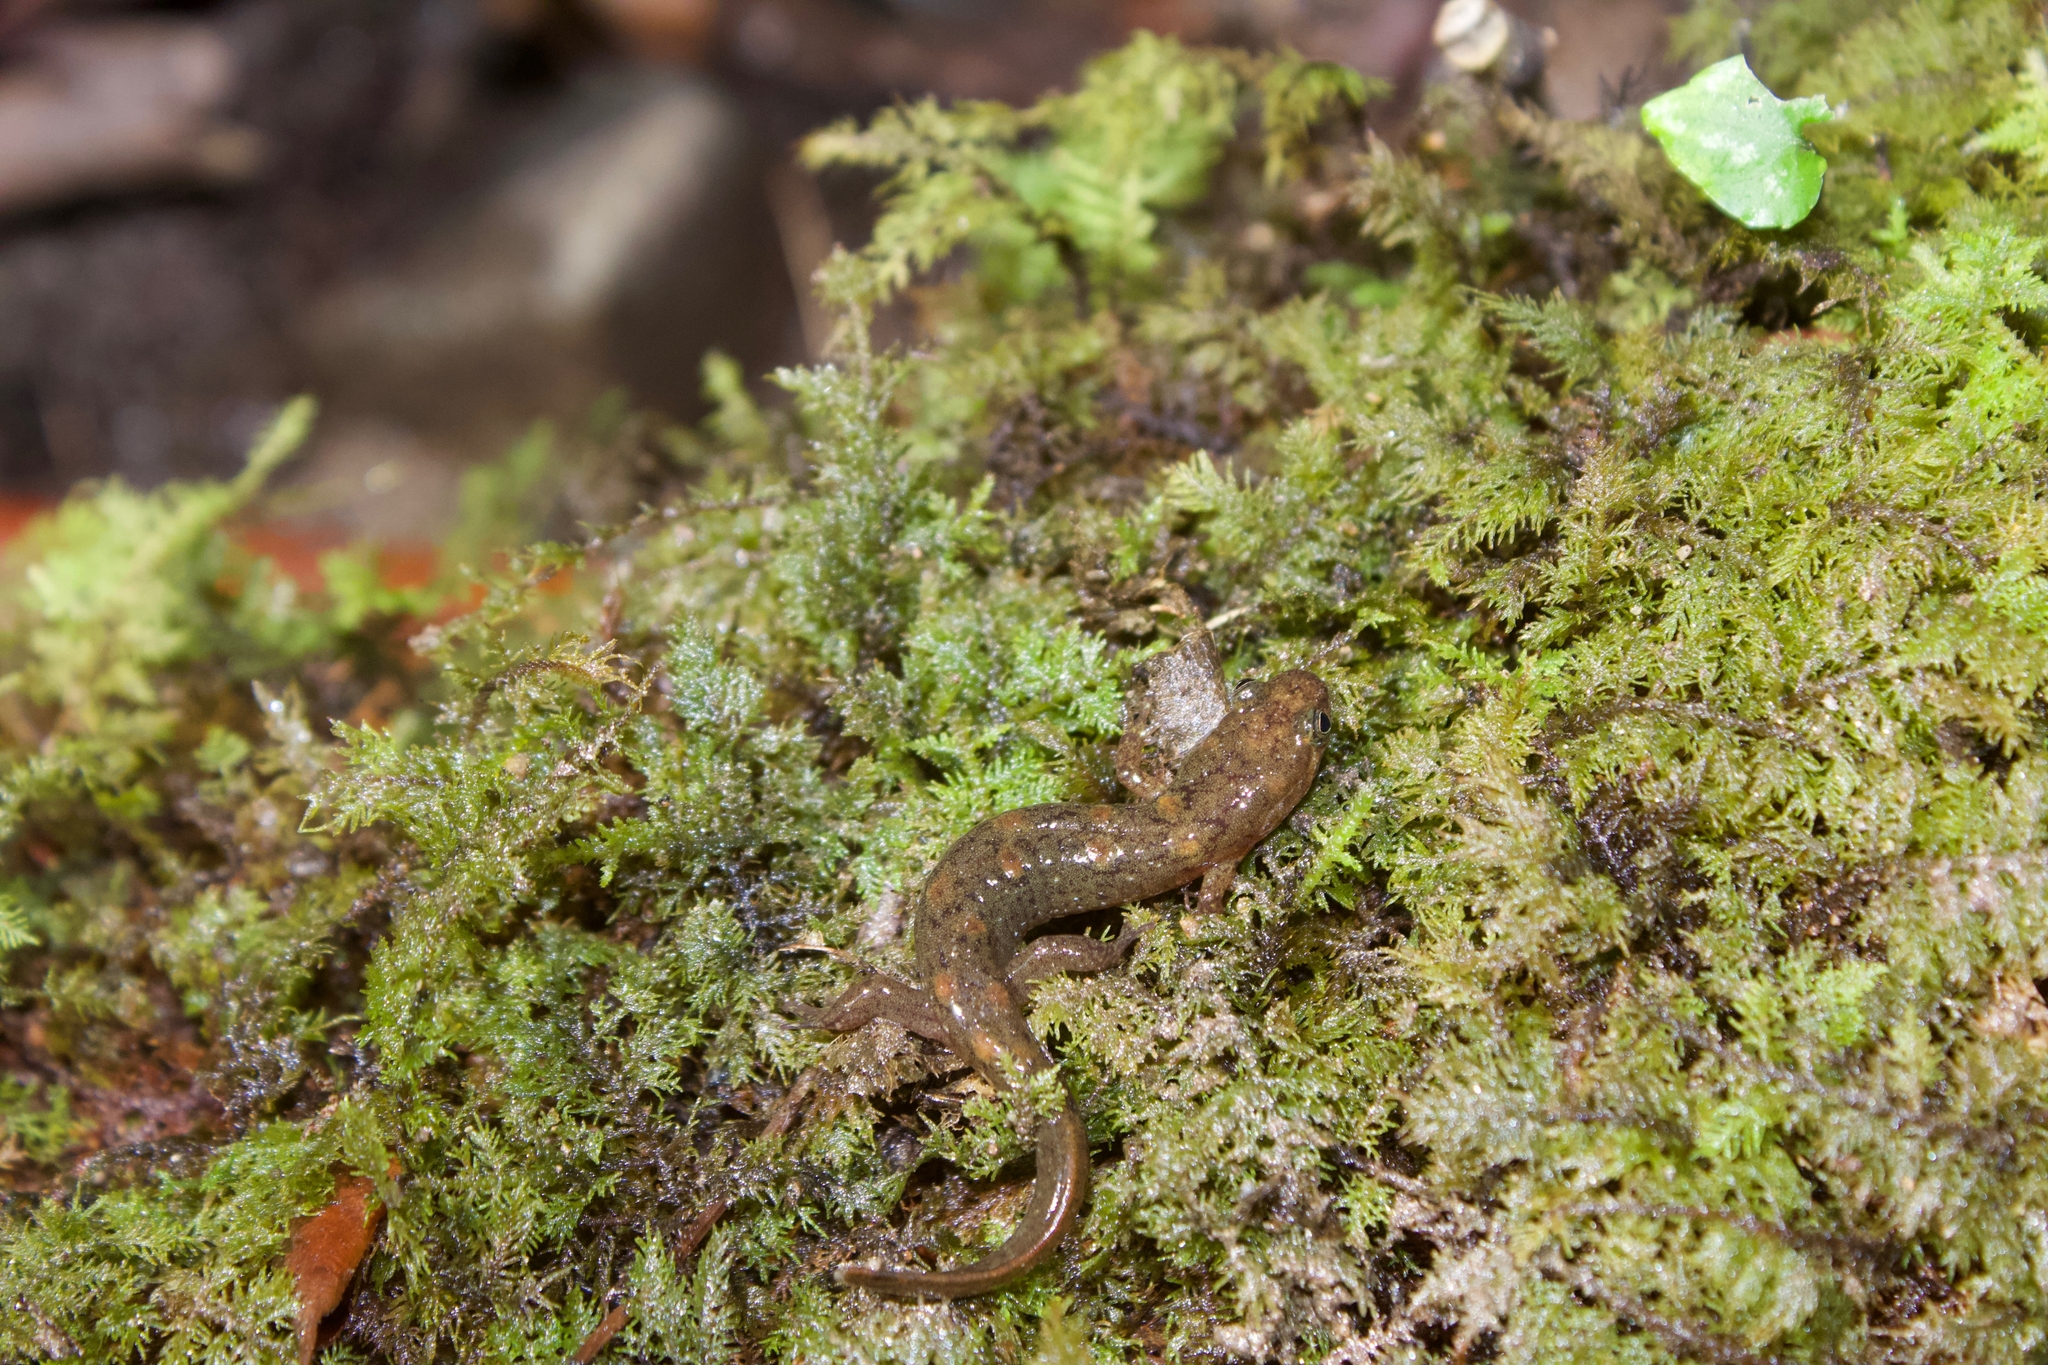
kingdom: Animalia
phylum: Chordata
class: Amphibia
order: Caudata
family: Plethodontidae
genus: Desmognathus
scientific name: Desmognathus monticola
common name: Seal salamander
